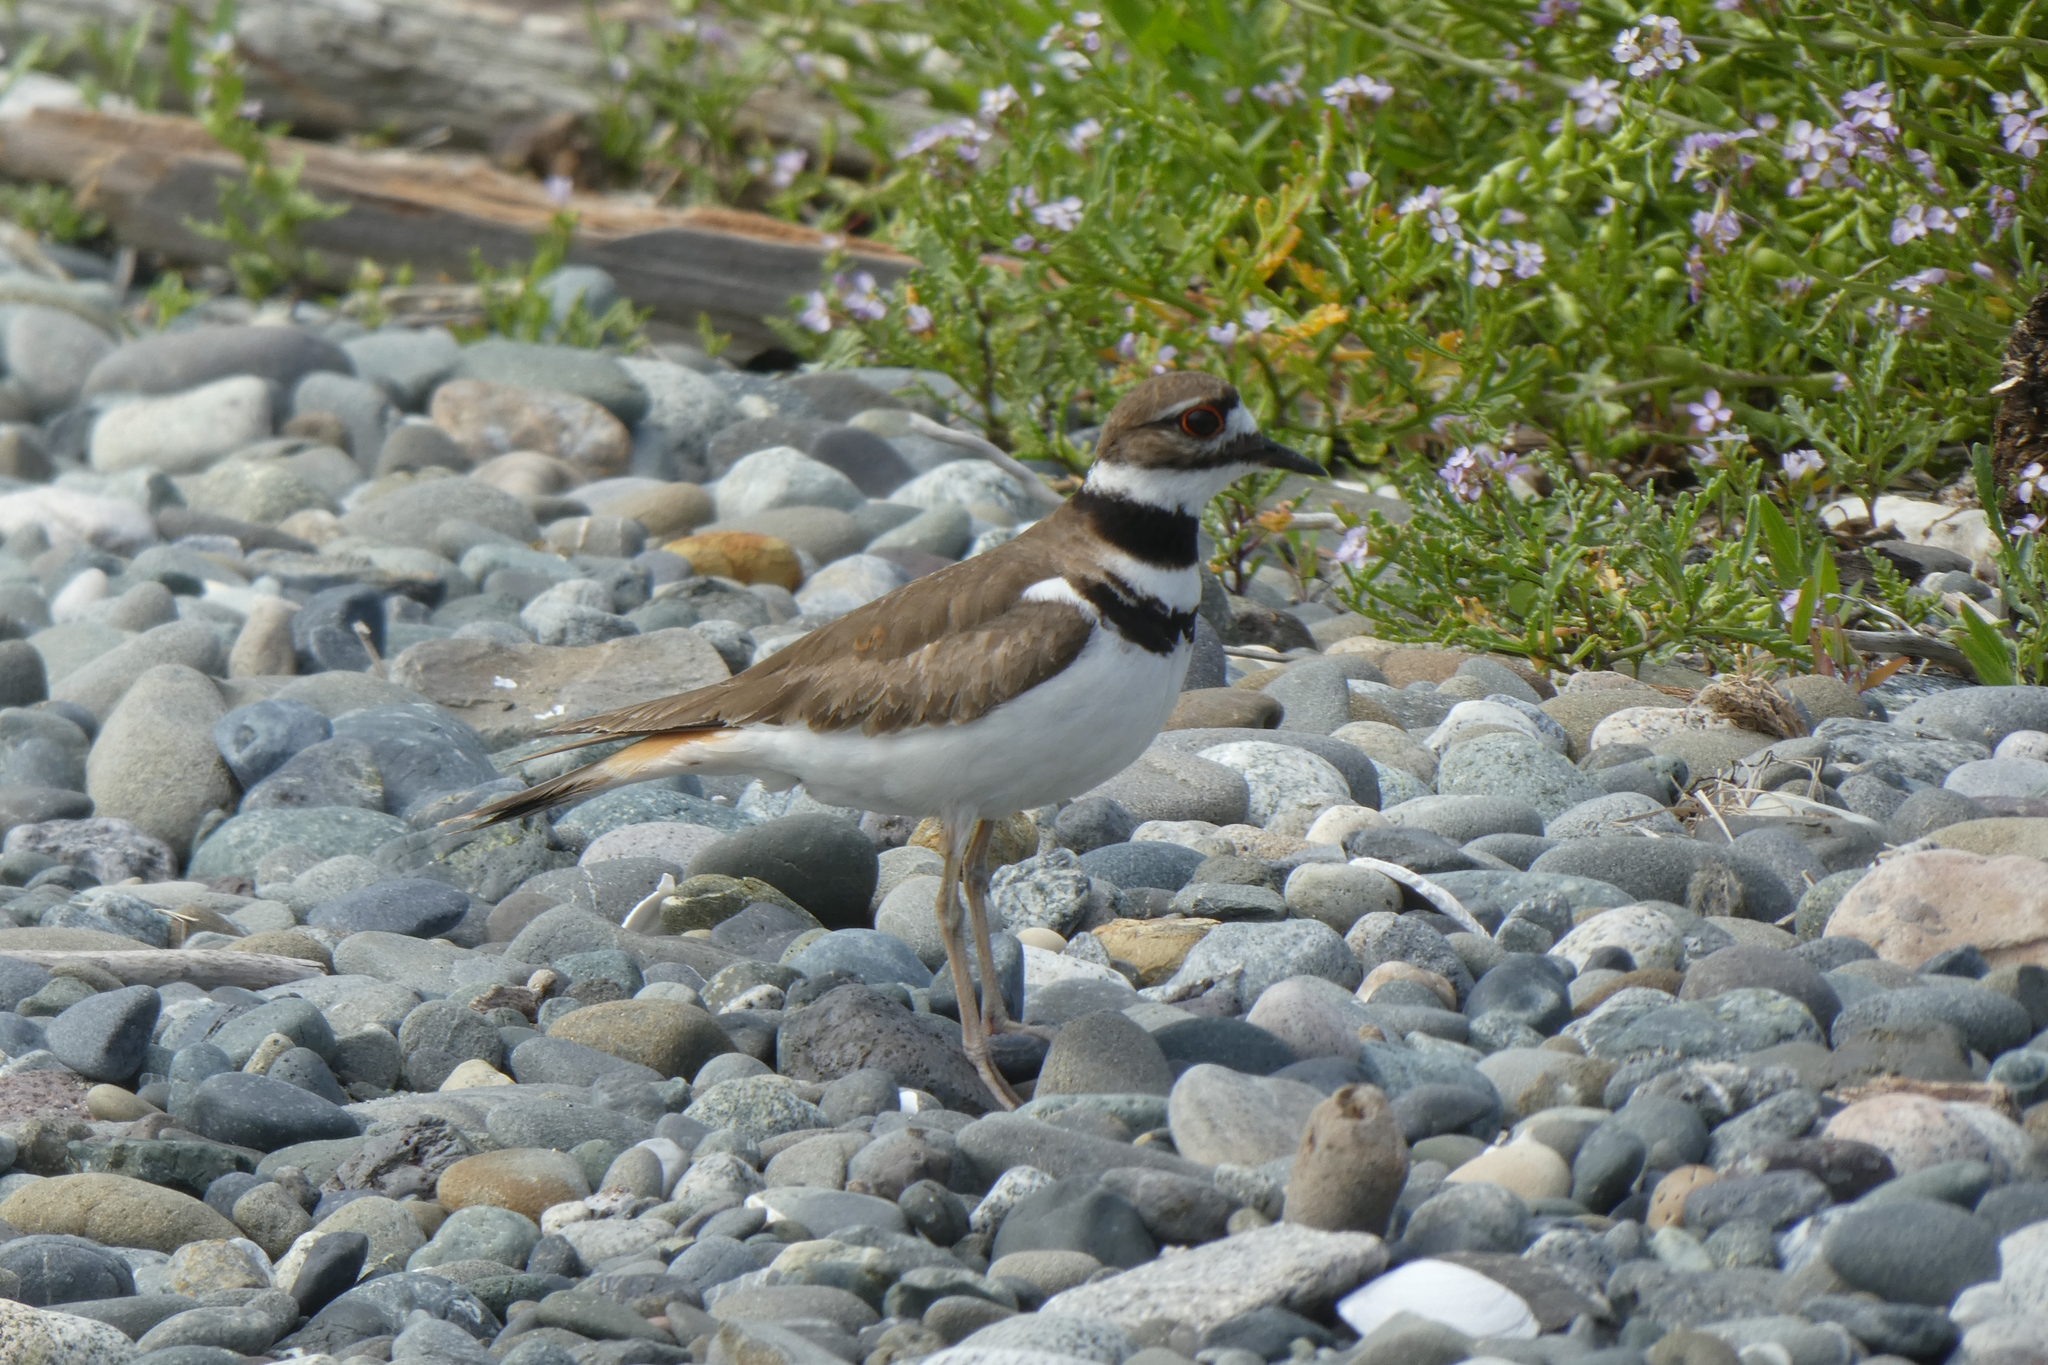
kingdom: Animalia
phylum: Chordata
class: Aves
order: Charadriiformes
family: Charadriidae
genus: Charadrius
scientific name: Charadrius vociferus
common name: Killdeer
